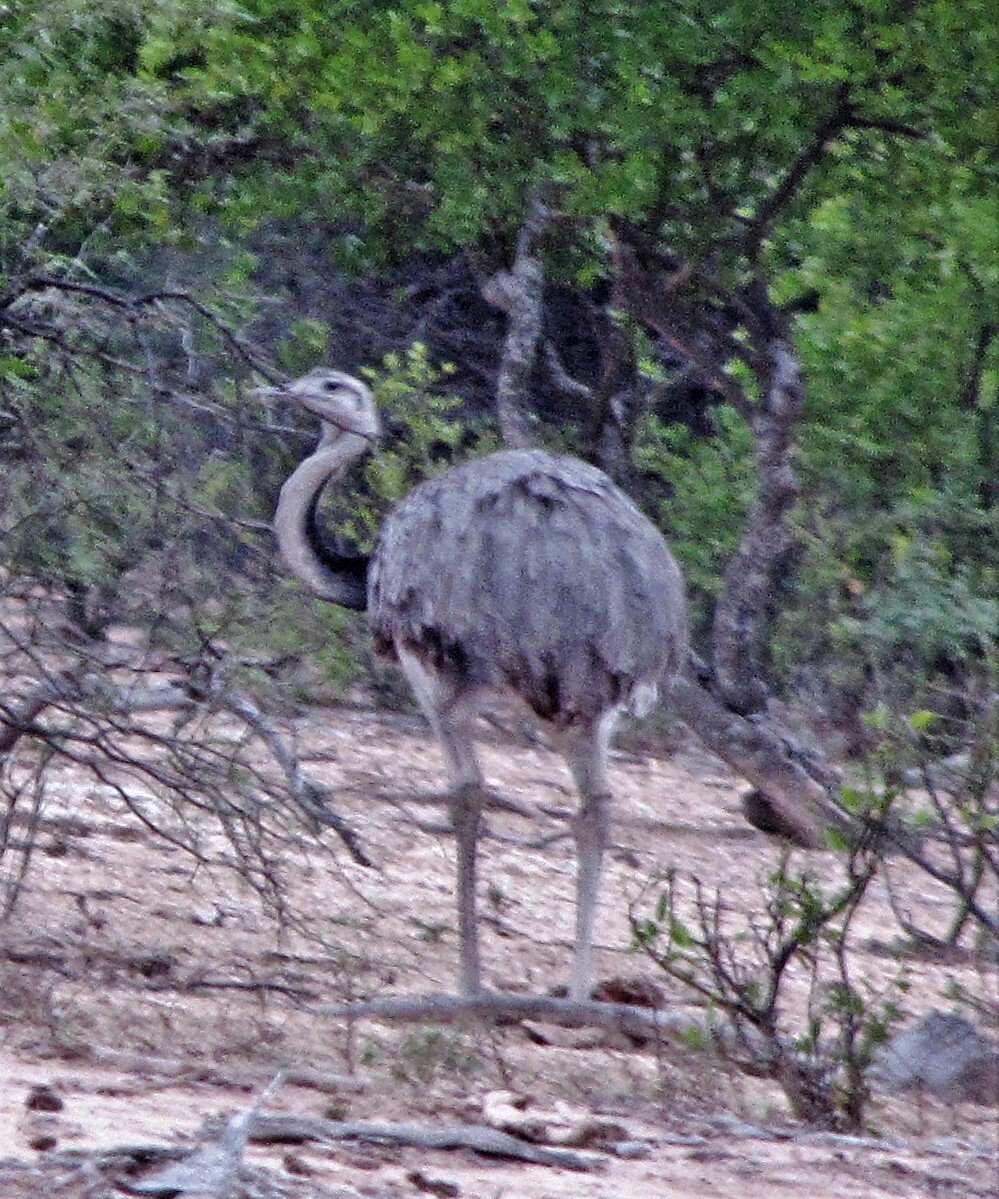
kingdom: Animalia
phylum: Chordata
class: Aves
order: Rheiformes
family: Rheidae
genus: Rhea
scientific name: Rhea americana
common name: Greater rhea
